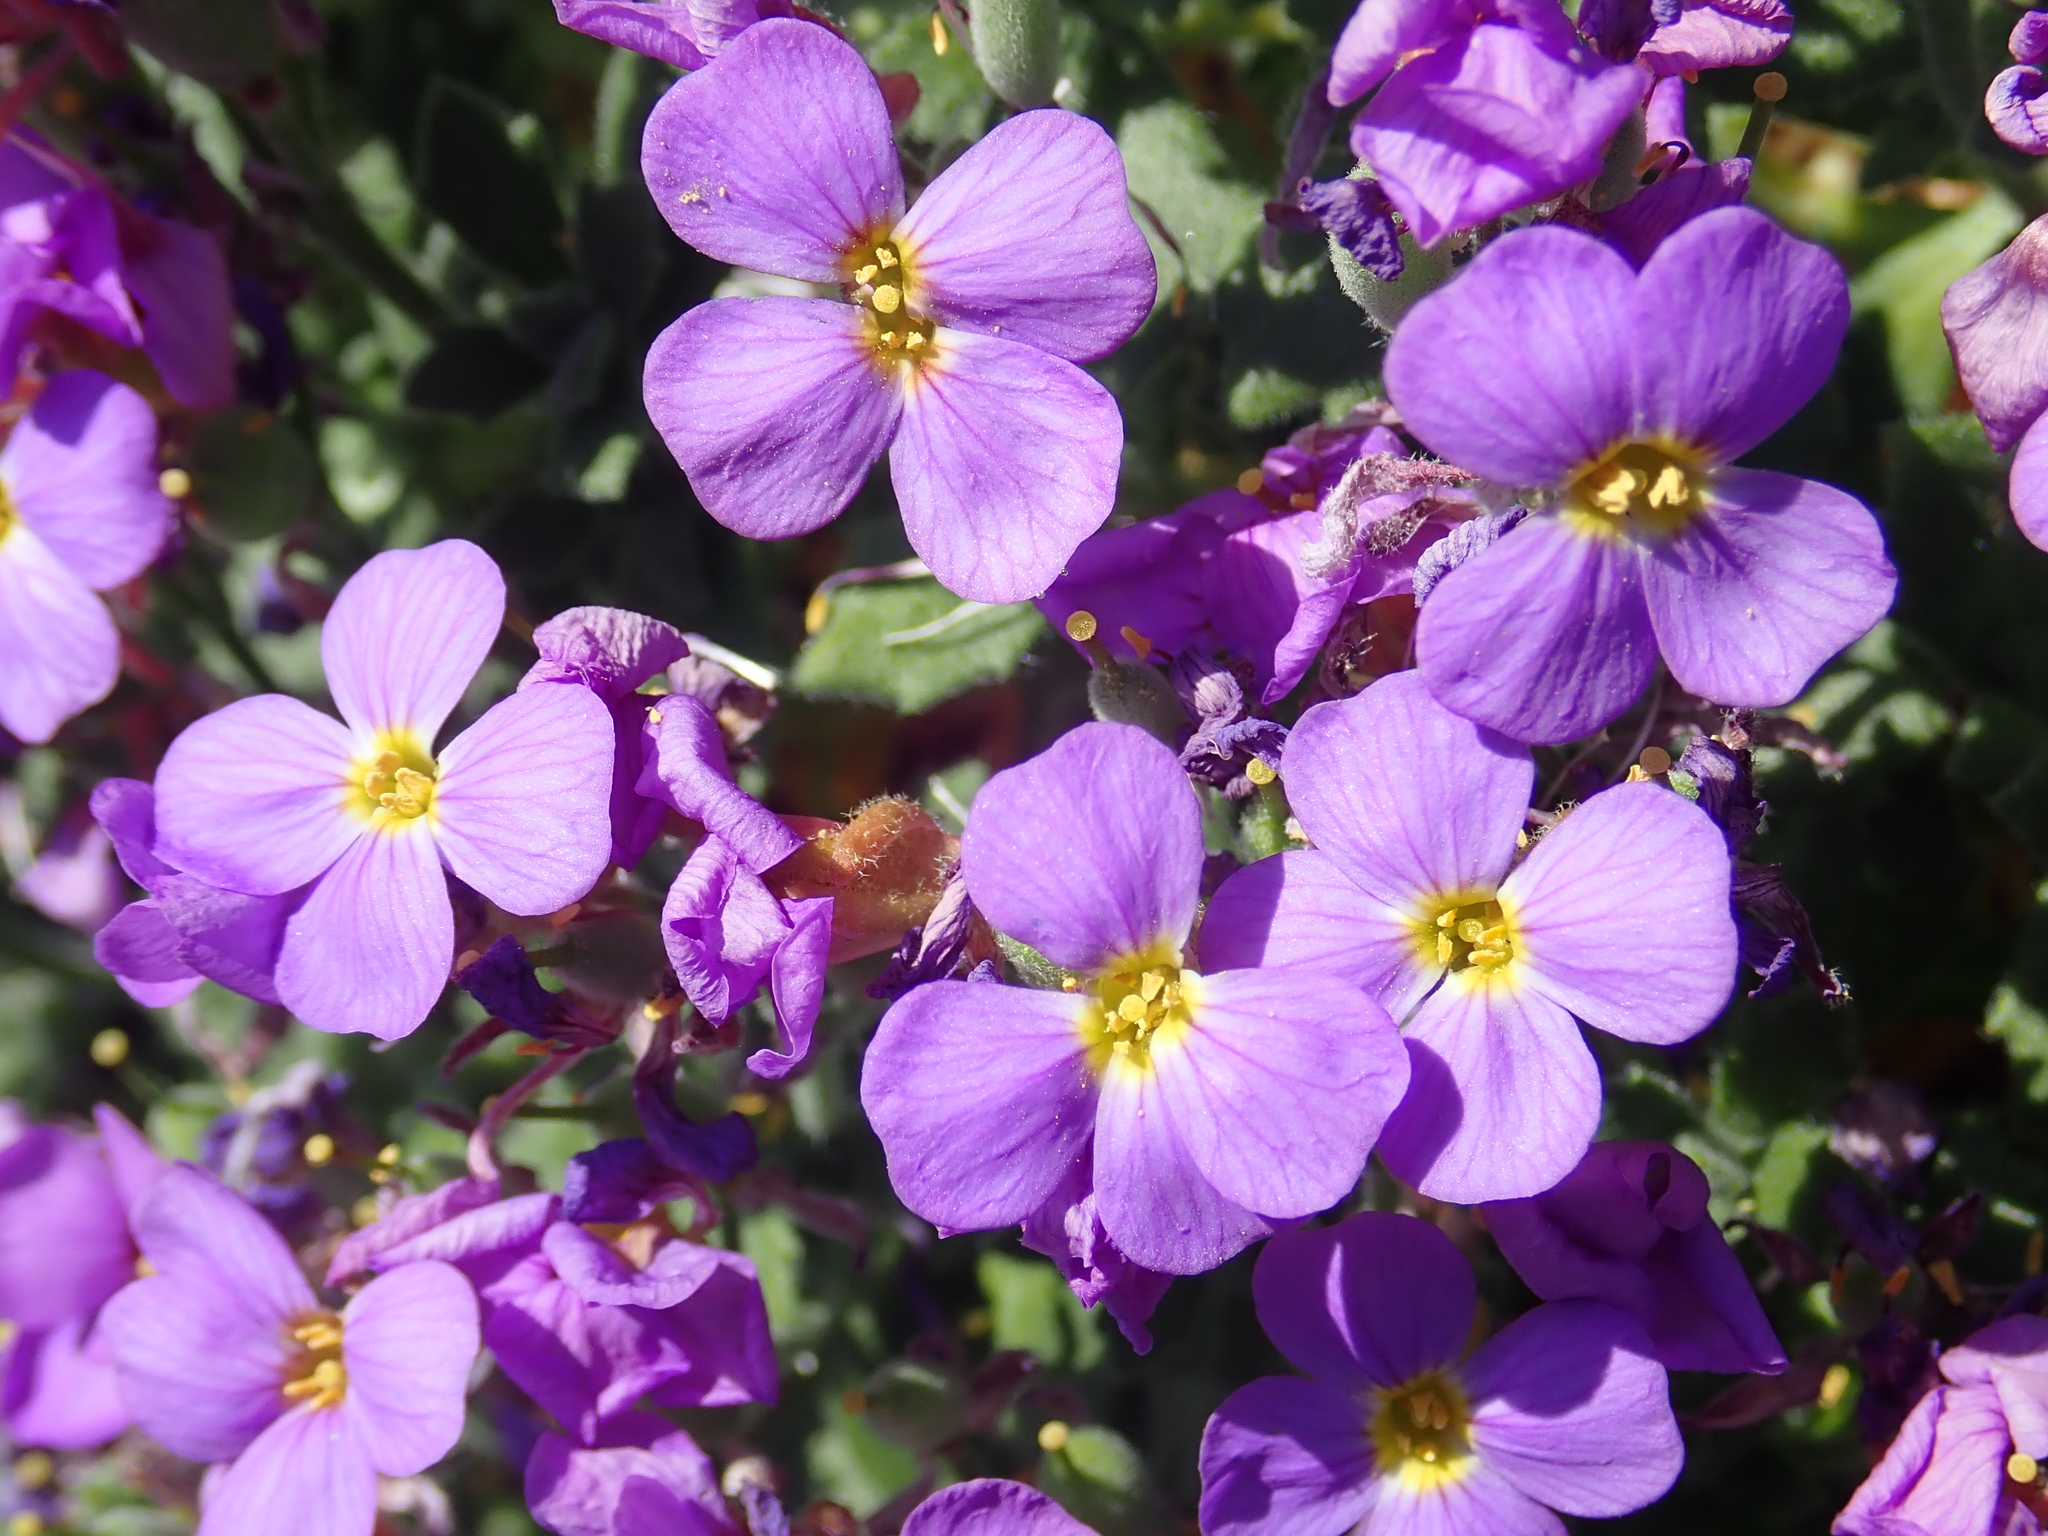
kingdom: Plantae
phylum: Tracheophyta
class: Magnoliopsida
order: Brassicales
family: Brassicaceae
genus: Aubrieta
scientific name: Aubrieta deltoidea
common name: Aubretia
